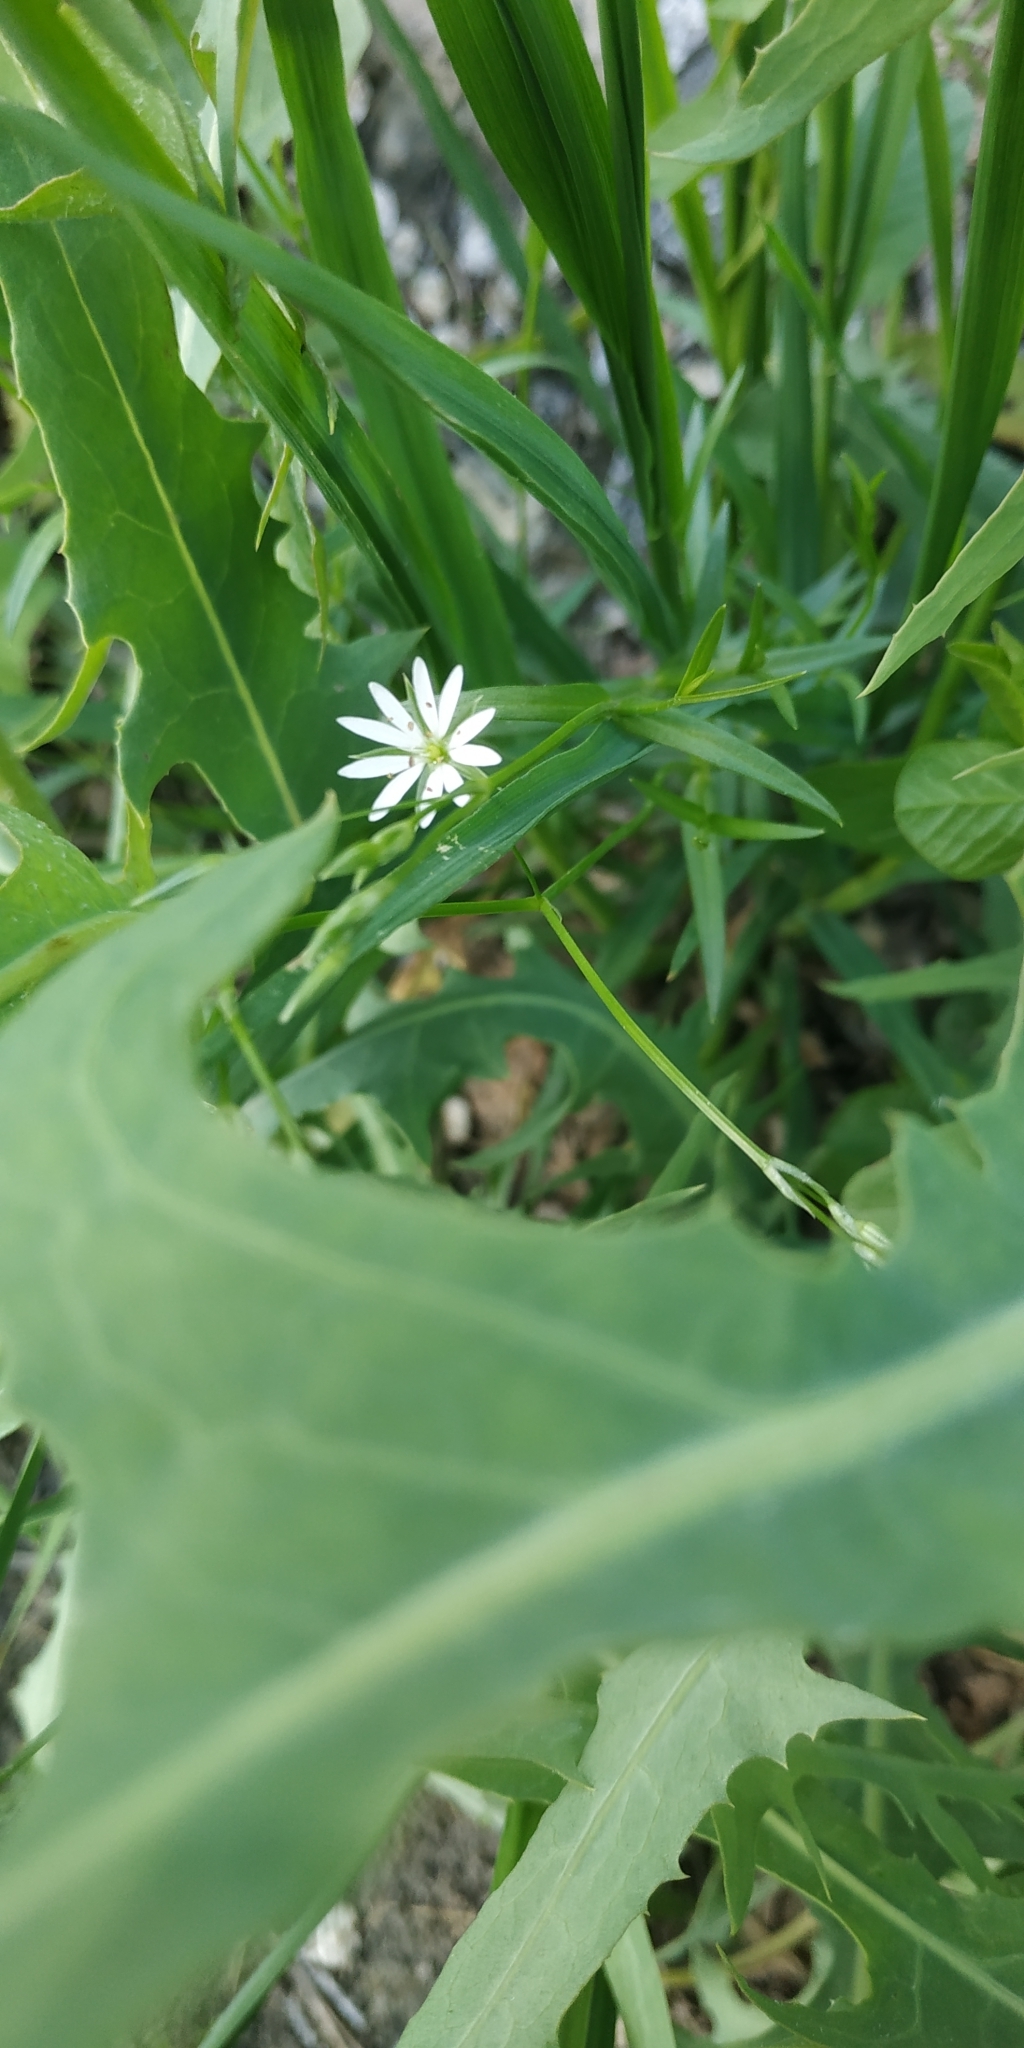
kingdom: Plantae
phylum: Tracheophyta
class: Magnoliopsida
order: Caryophyllales
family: Caryophyllaceae
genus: Stellaria
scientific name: Stellaria graminea
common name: Grass-like starwort
